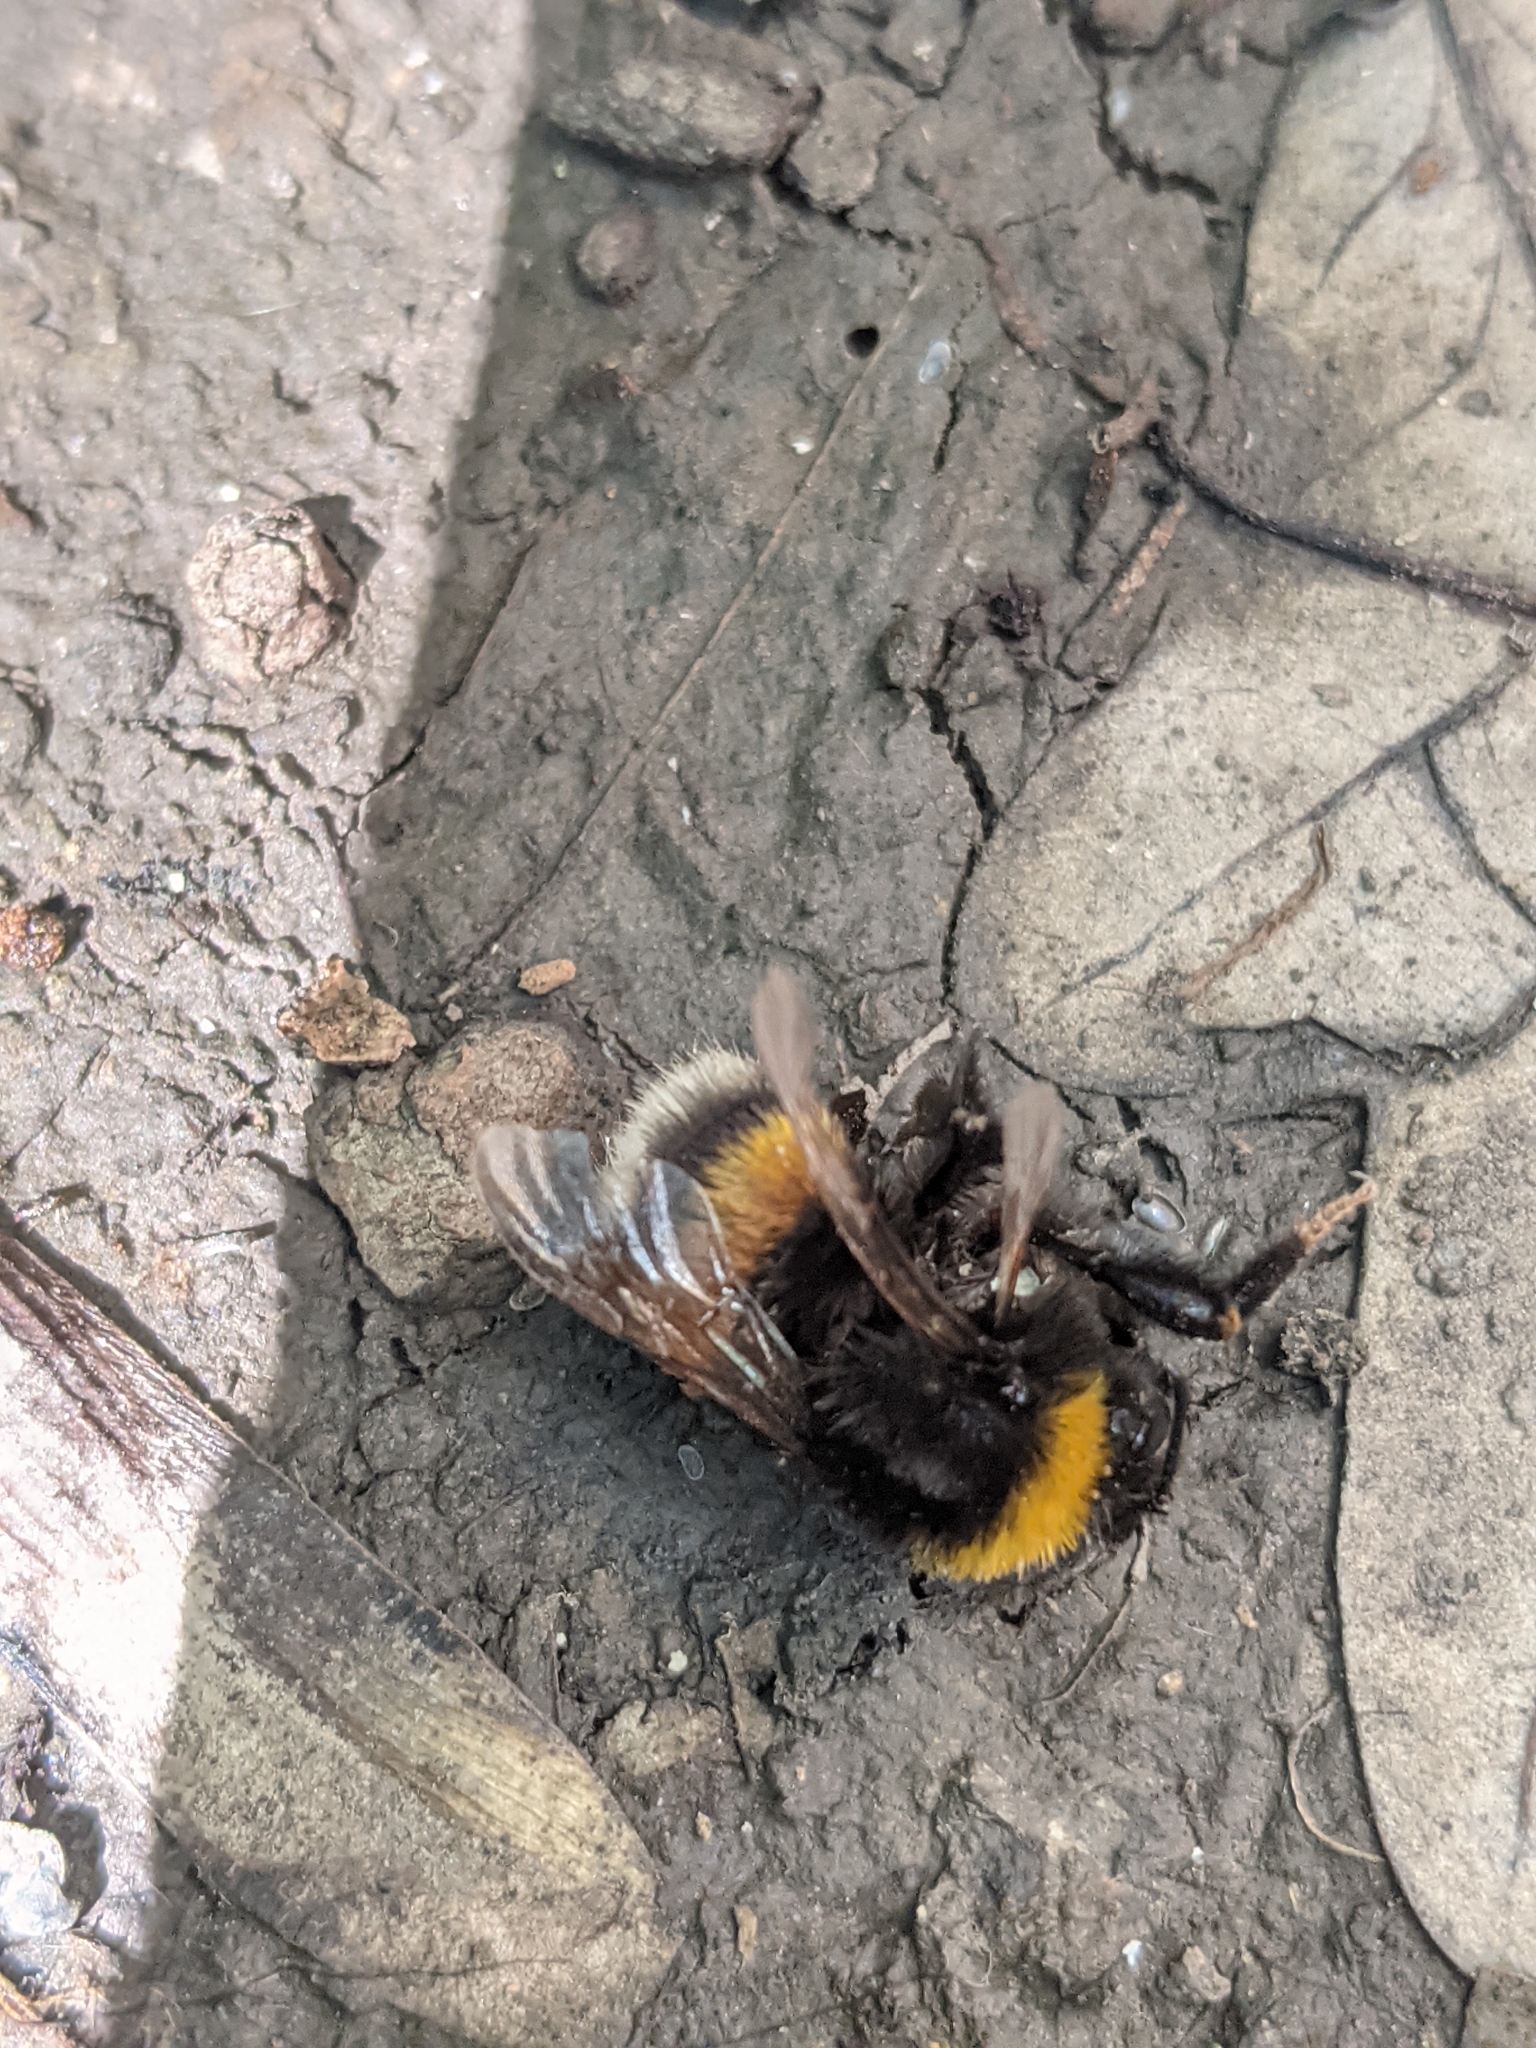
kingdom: Animalia
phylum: Arthropoda
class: Insecta
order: Hymenoptera
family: Apidae
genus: Bombus
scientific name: Bombus
